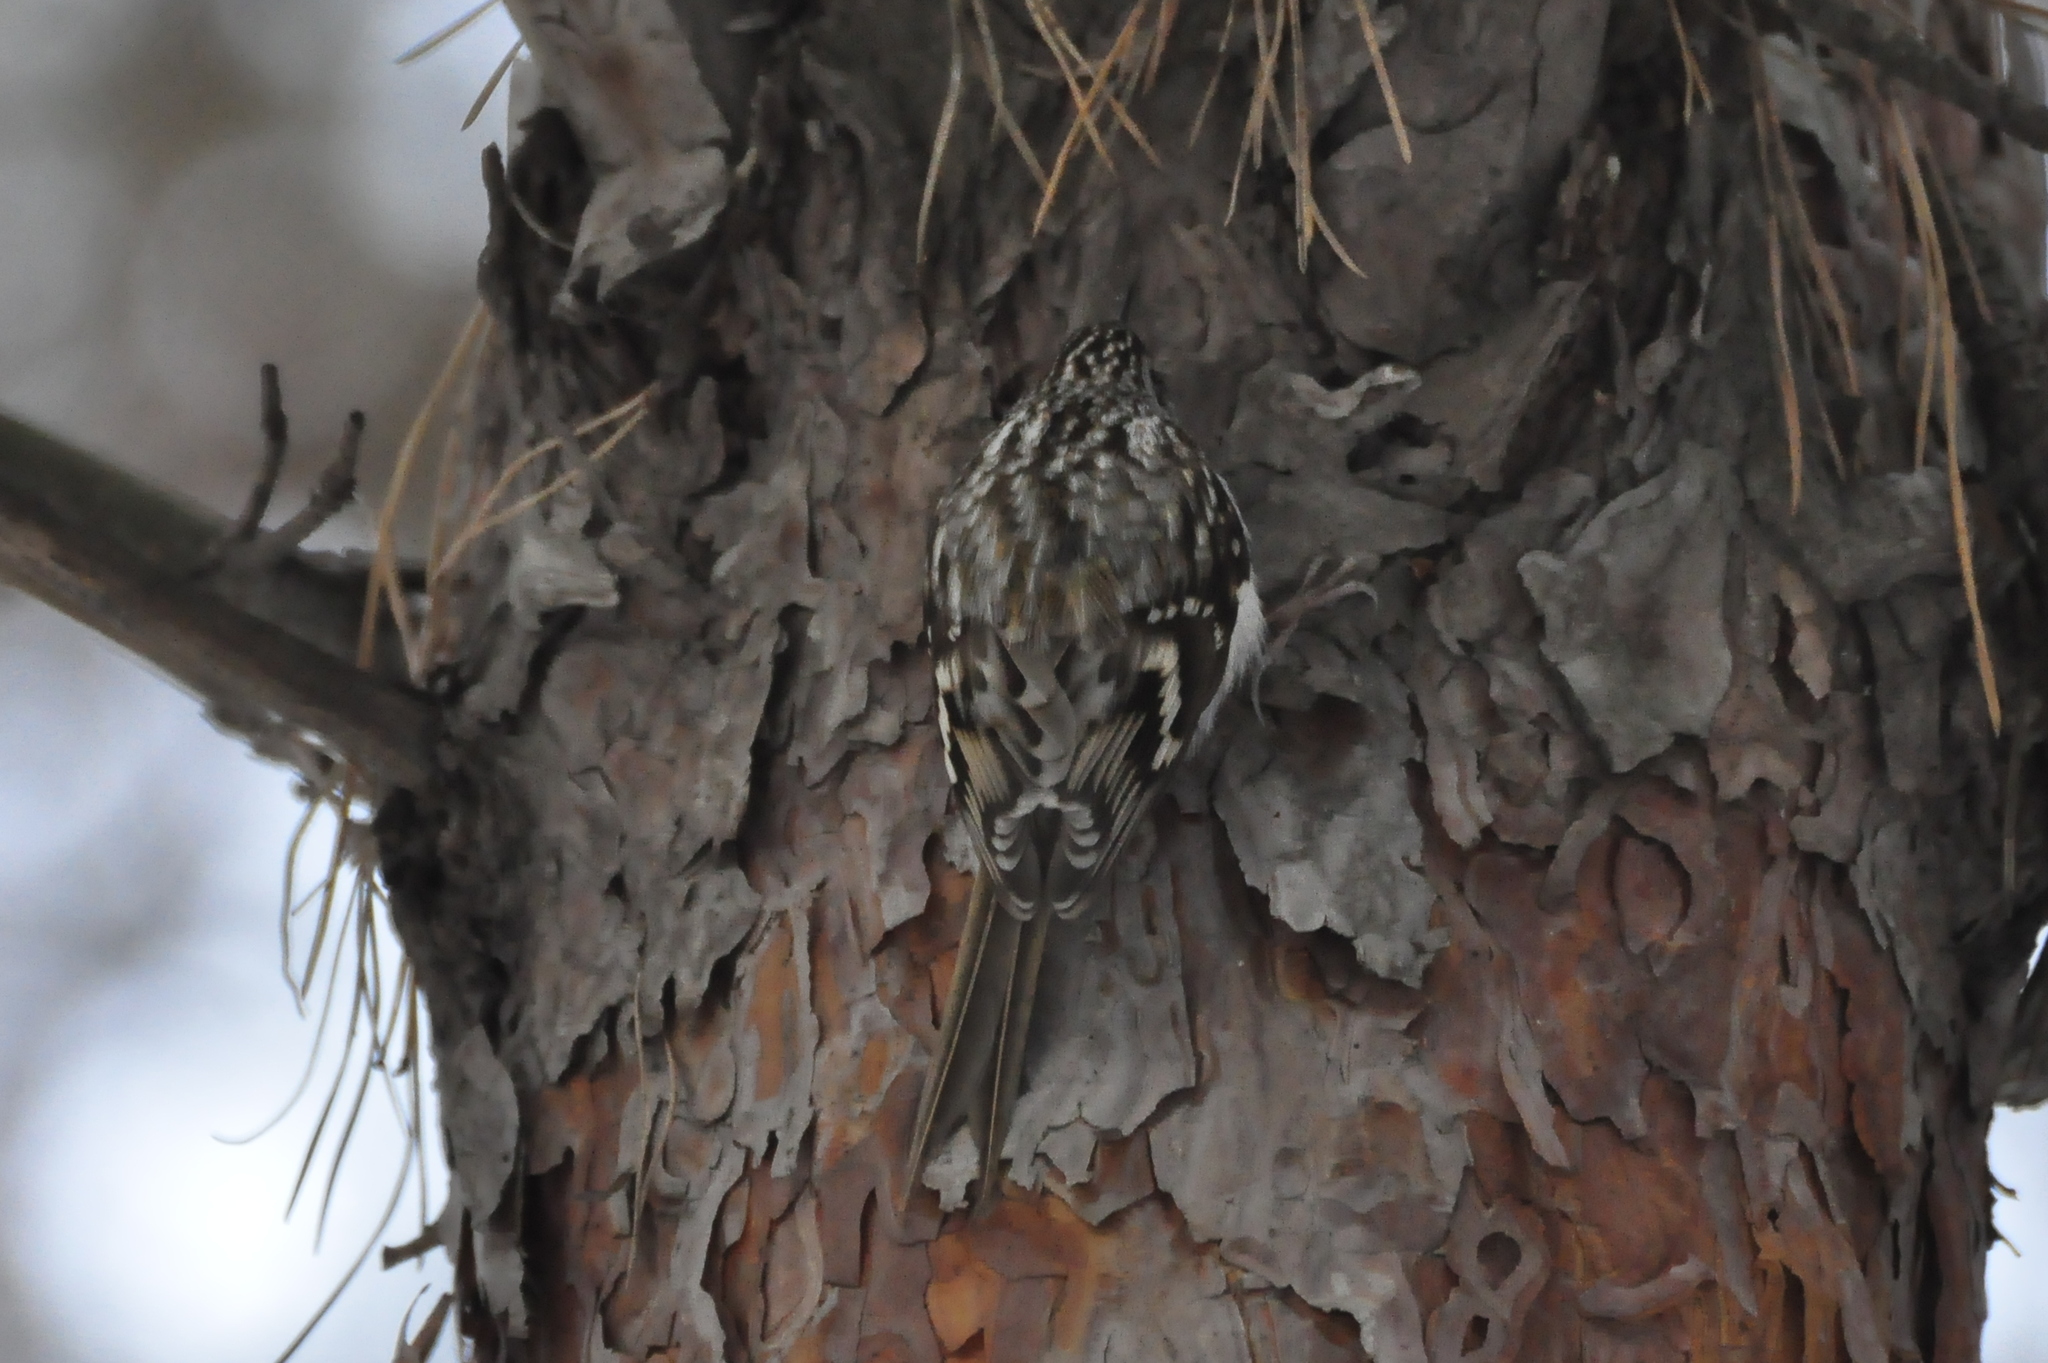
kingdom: Animalia
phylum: Chordata
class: Aves
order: Passeriformes
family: Certhiidae
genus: Certhia
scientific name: Certhia familiaris
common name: Eurasian treecreeper
